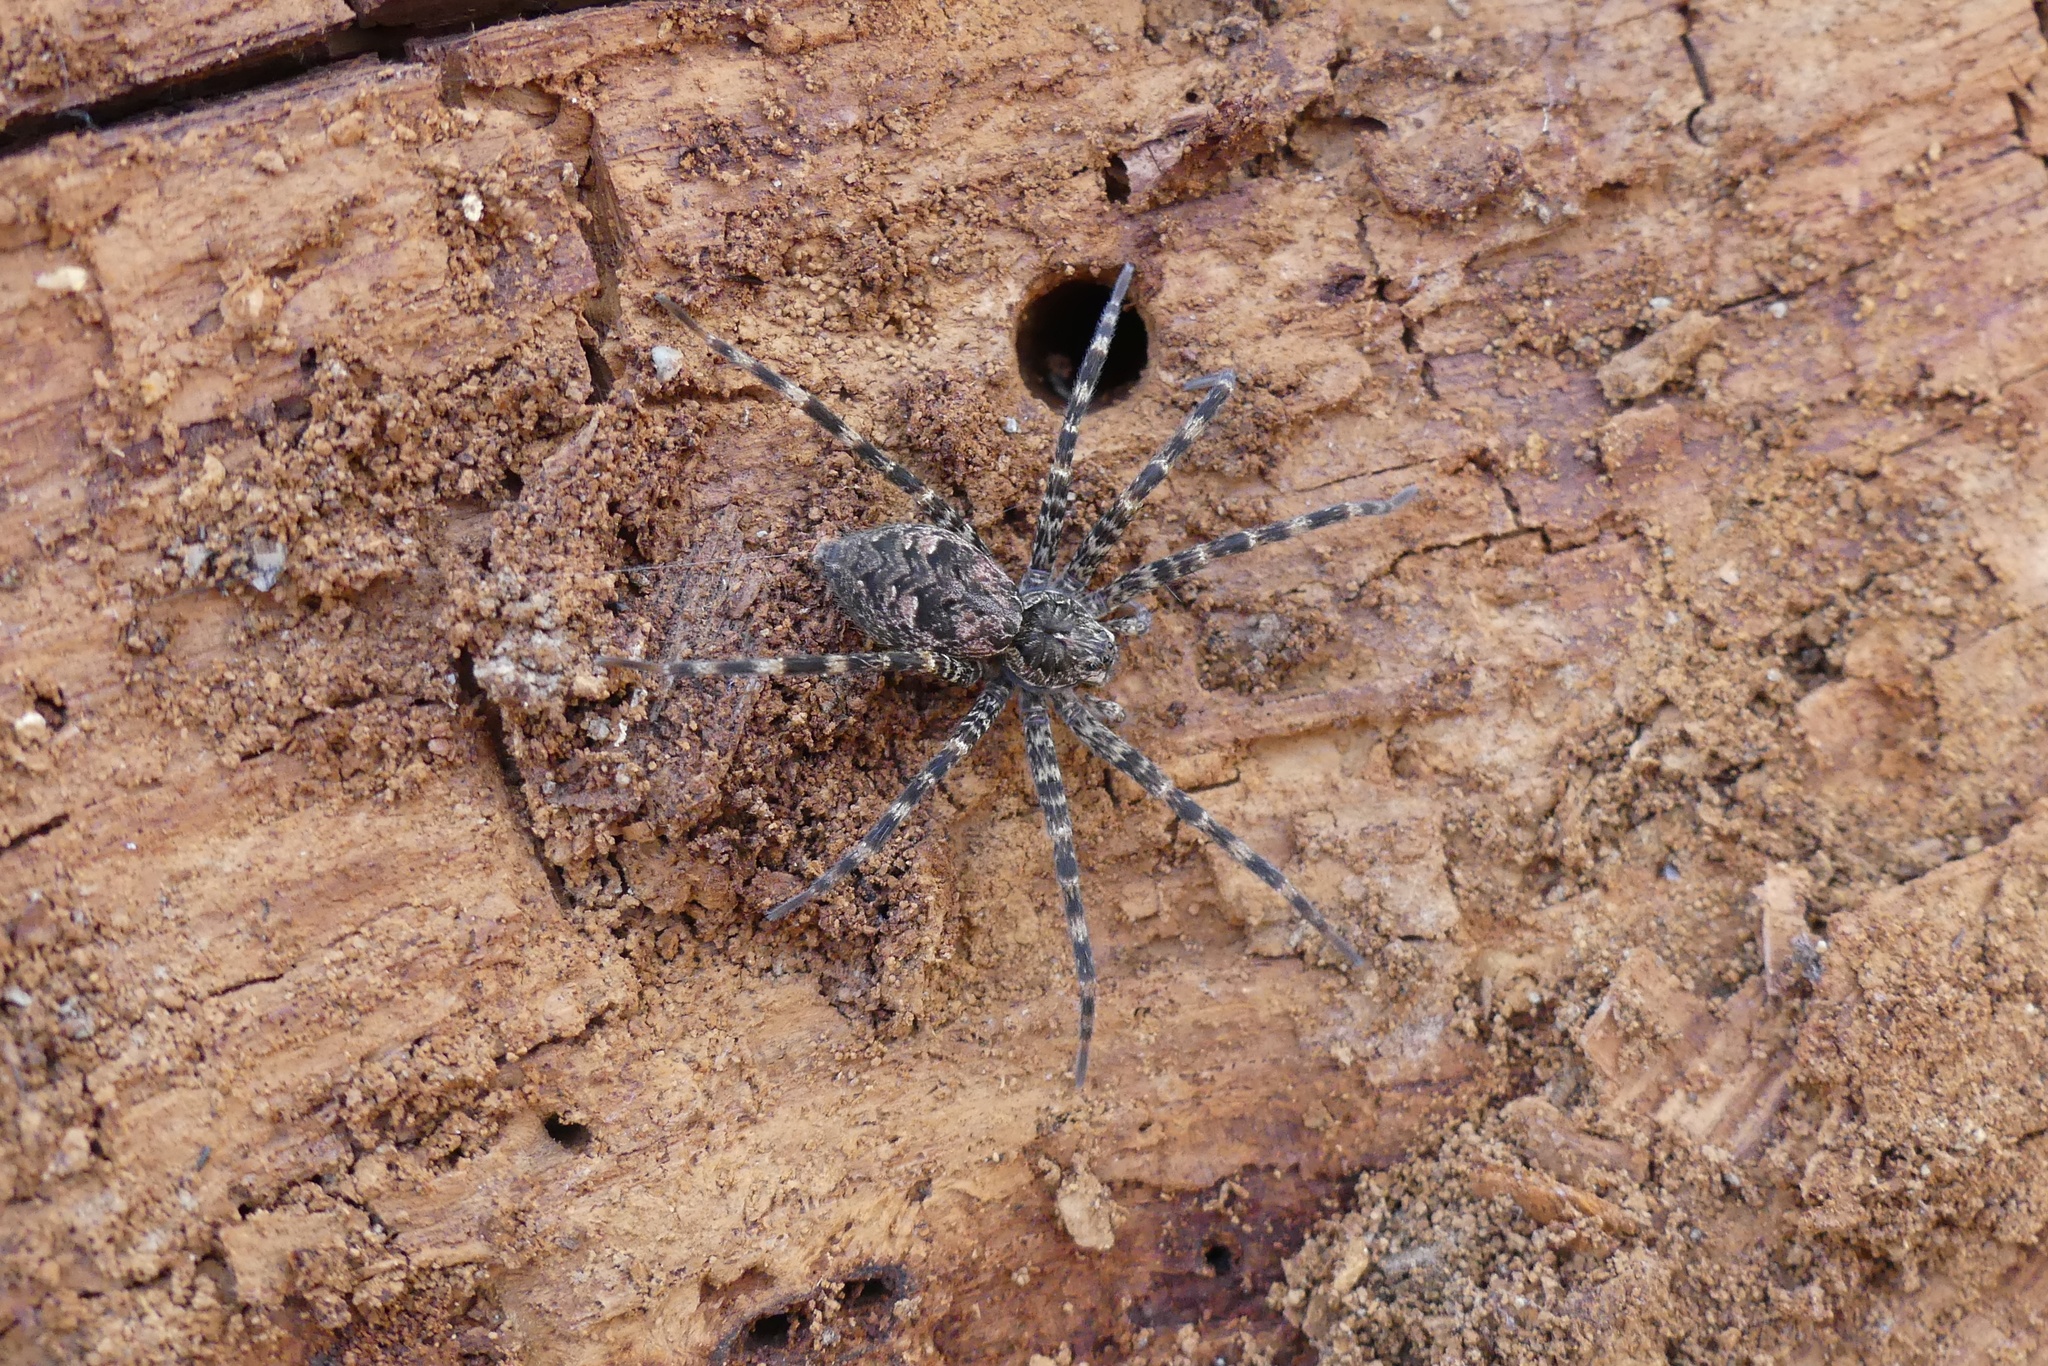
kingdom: Animalia
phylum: Arthropoda
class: Arachnida
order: Araneae
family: Pisauridae
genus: Dolomedes
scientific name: Dolomedes tenebrosus
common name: Dark fishing spider
